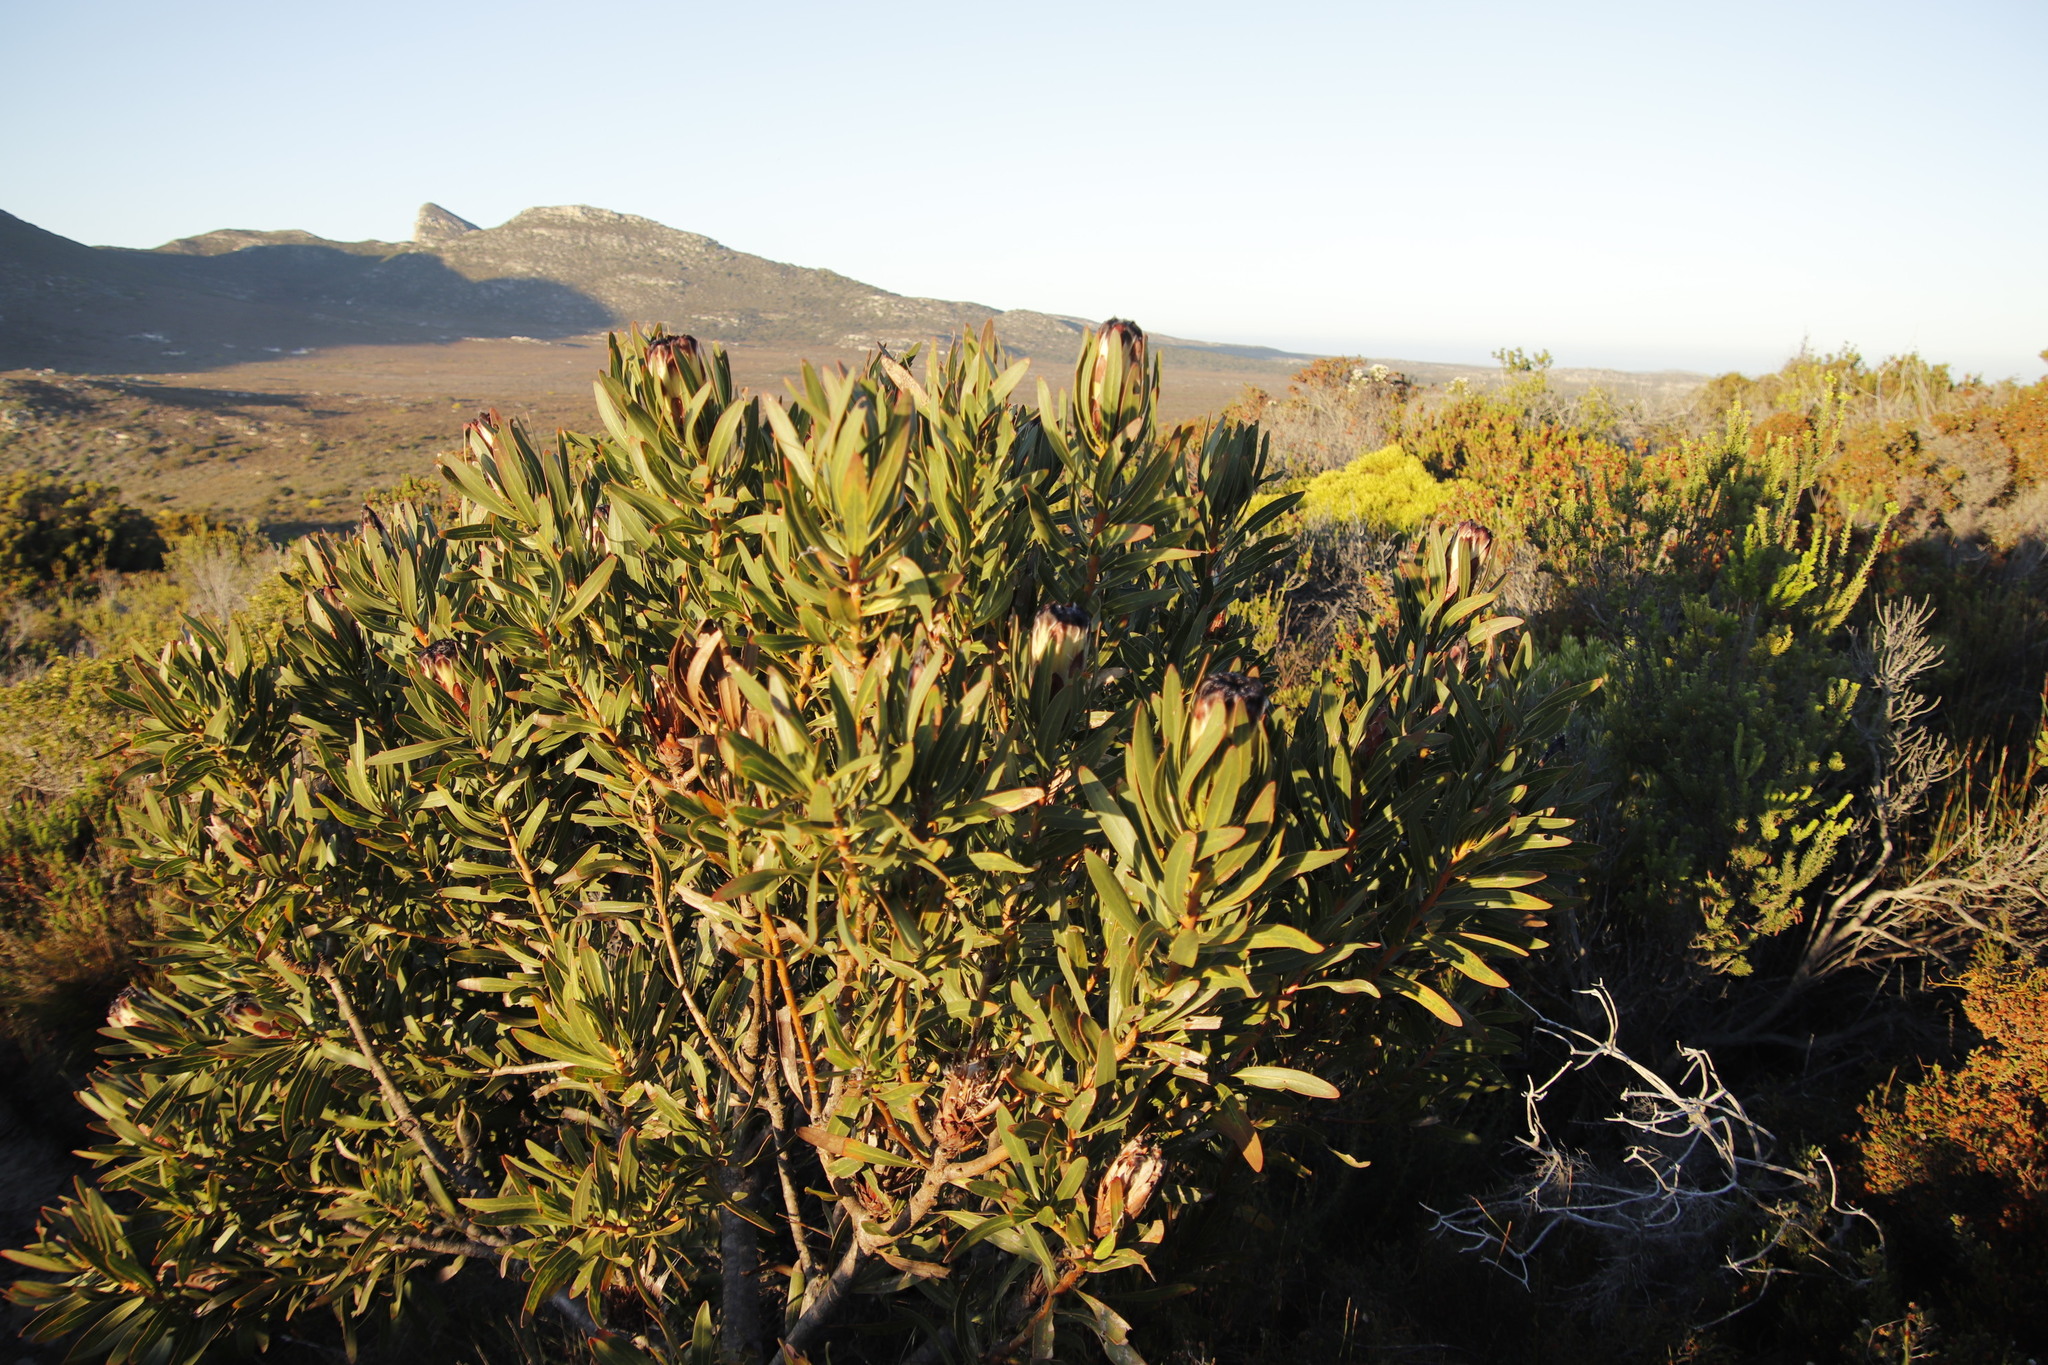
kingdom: Plantae
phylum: Tracheophyta
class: Magnoliopsida
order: Proteales
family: Proteaceae
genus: Protea
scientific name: Protea lepidocarpodendron
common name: Black-bearded protea
